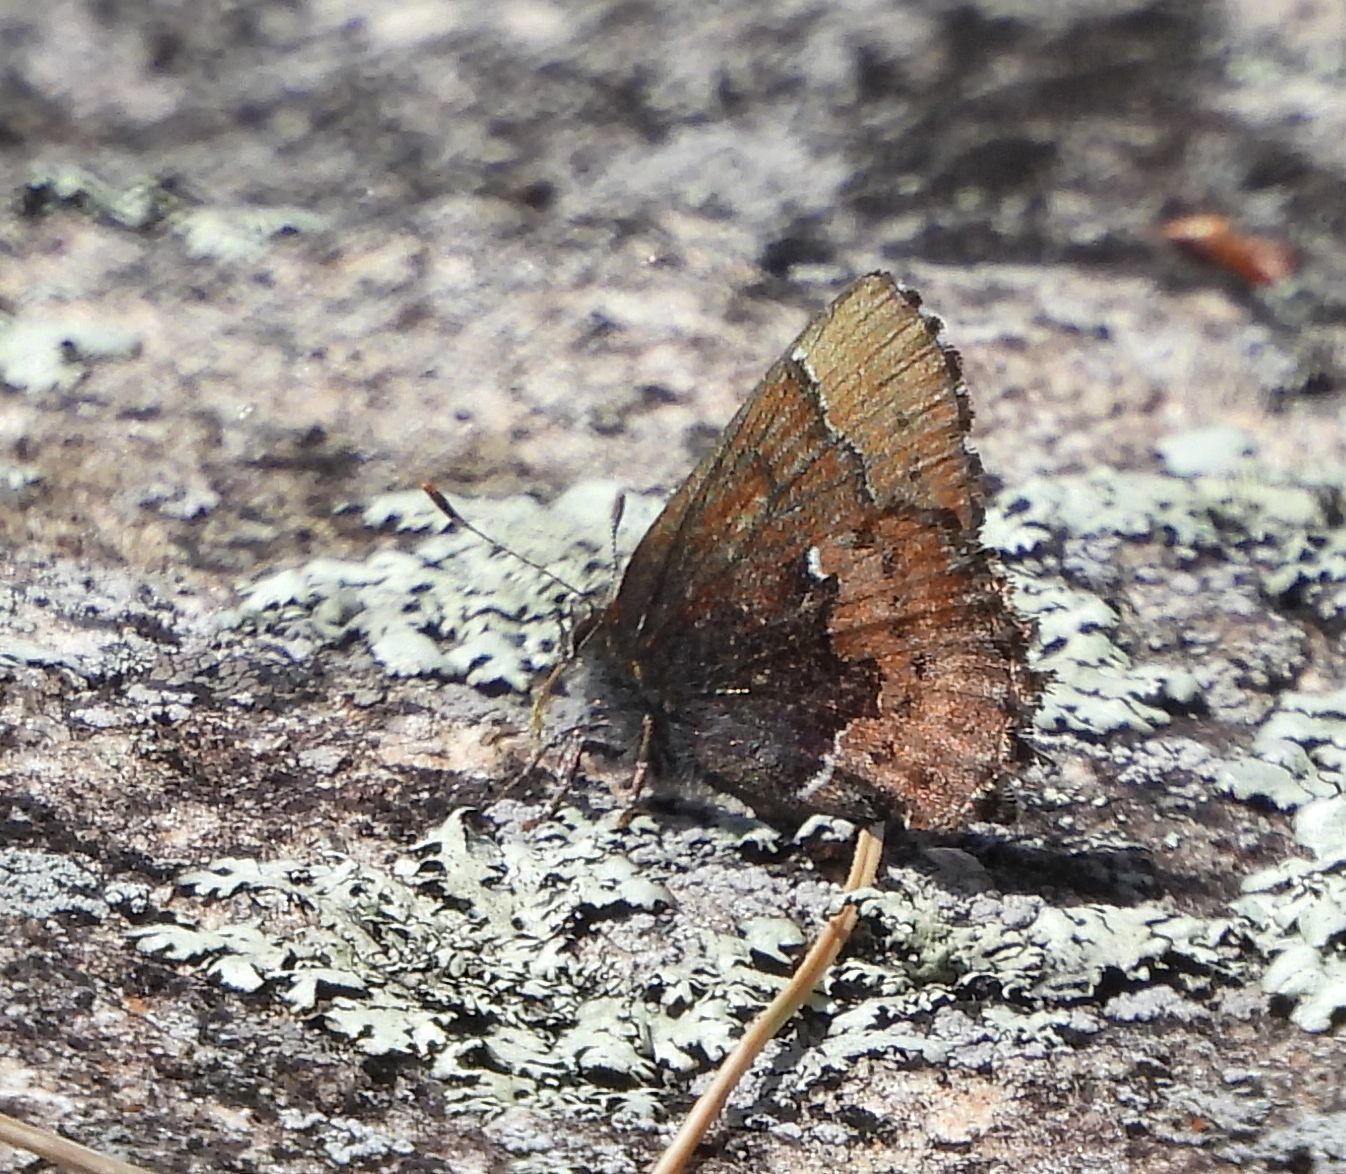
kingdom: Animalia
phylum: Arthropoda
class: Insecta
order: Lepidoptera
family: Lycaenidae
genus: Incisalia
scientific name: Incisalia henrici
